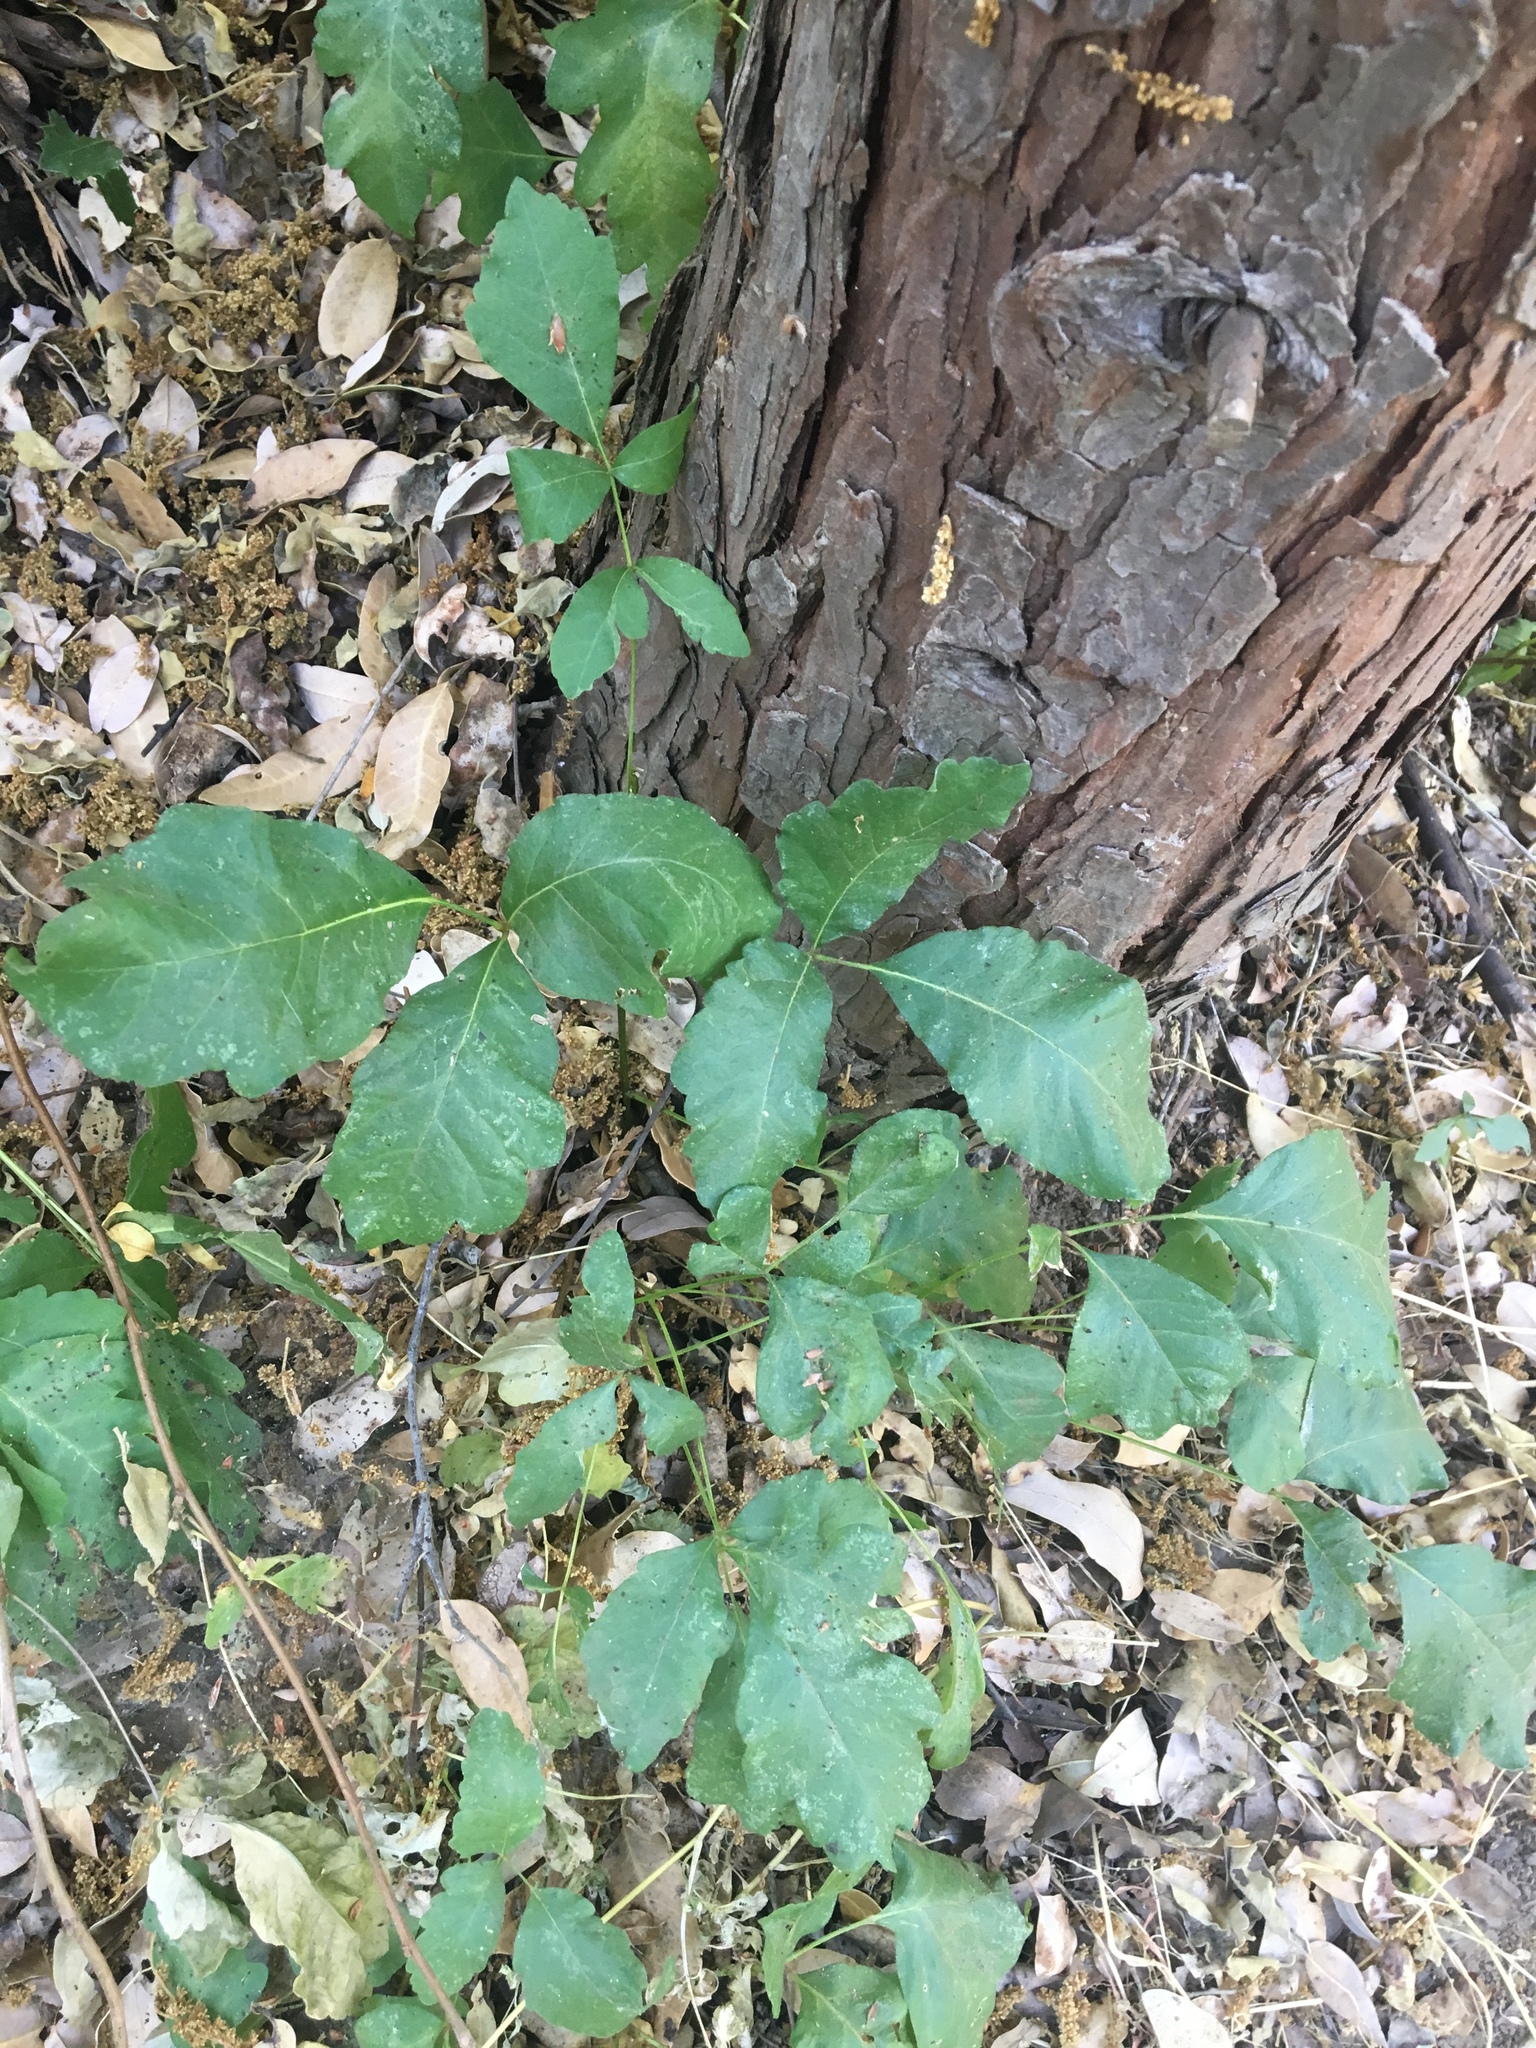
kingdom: Plantae
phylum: Tracheophyta
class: Magnoliopsida
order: Sapindales
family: Anacardiaceae
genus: Toxicodendron
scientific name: Toxicodendron diversilobum
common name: Pacific poison-oak
